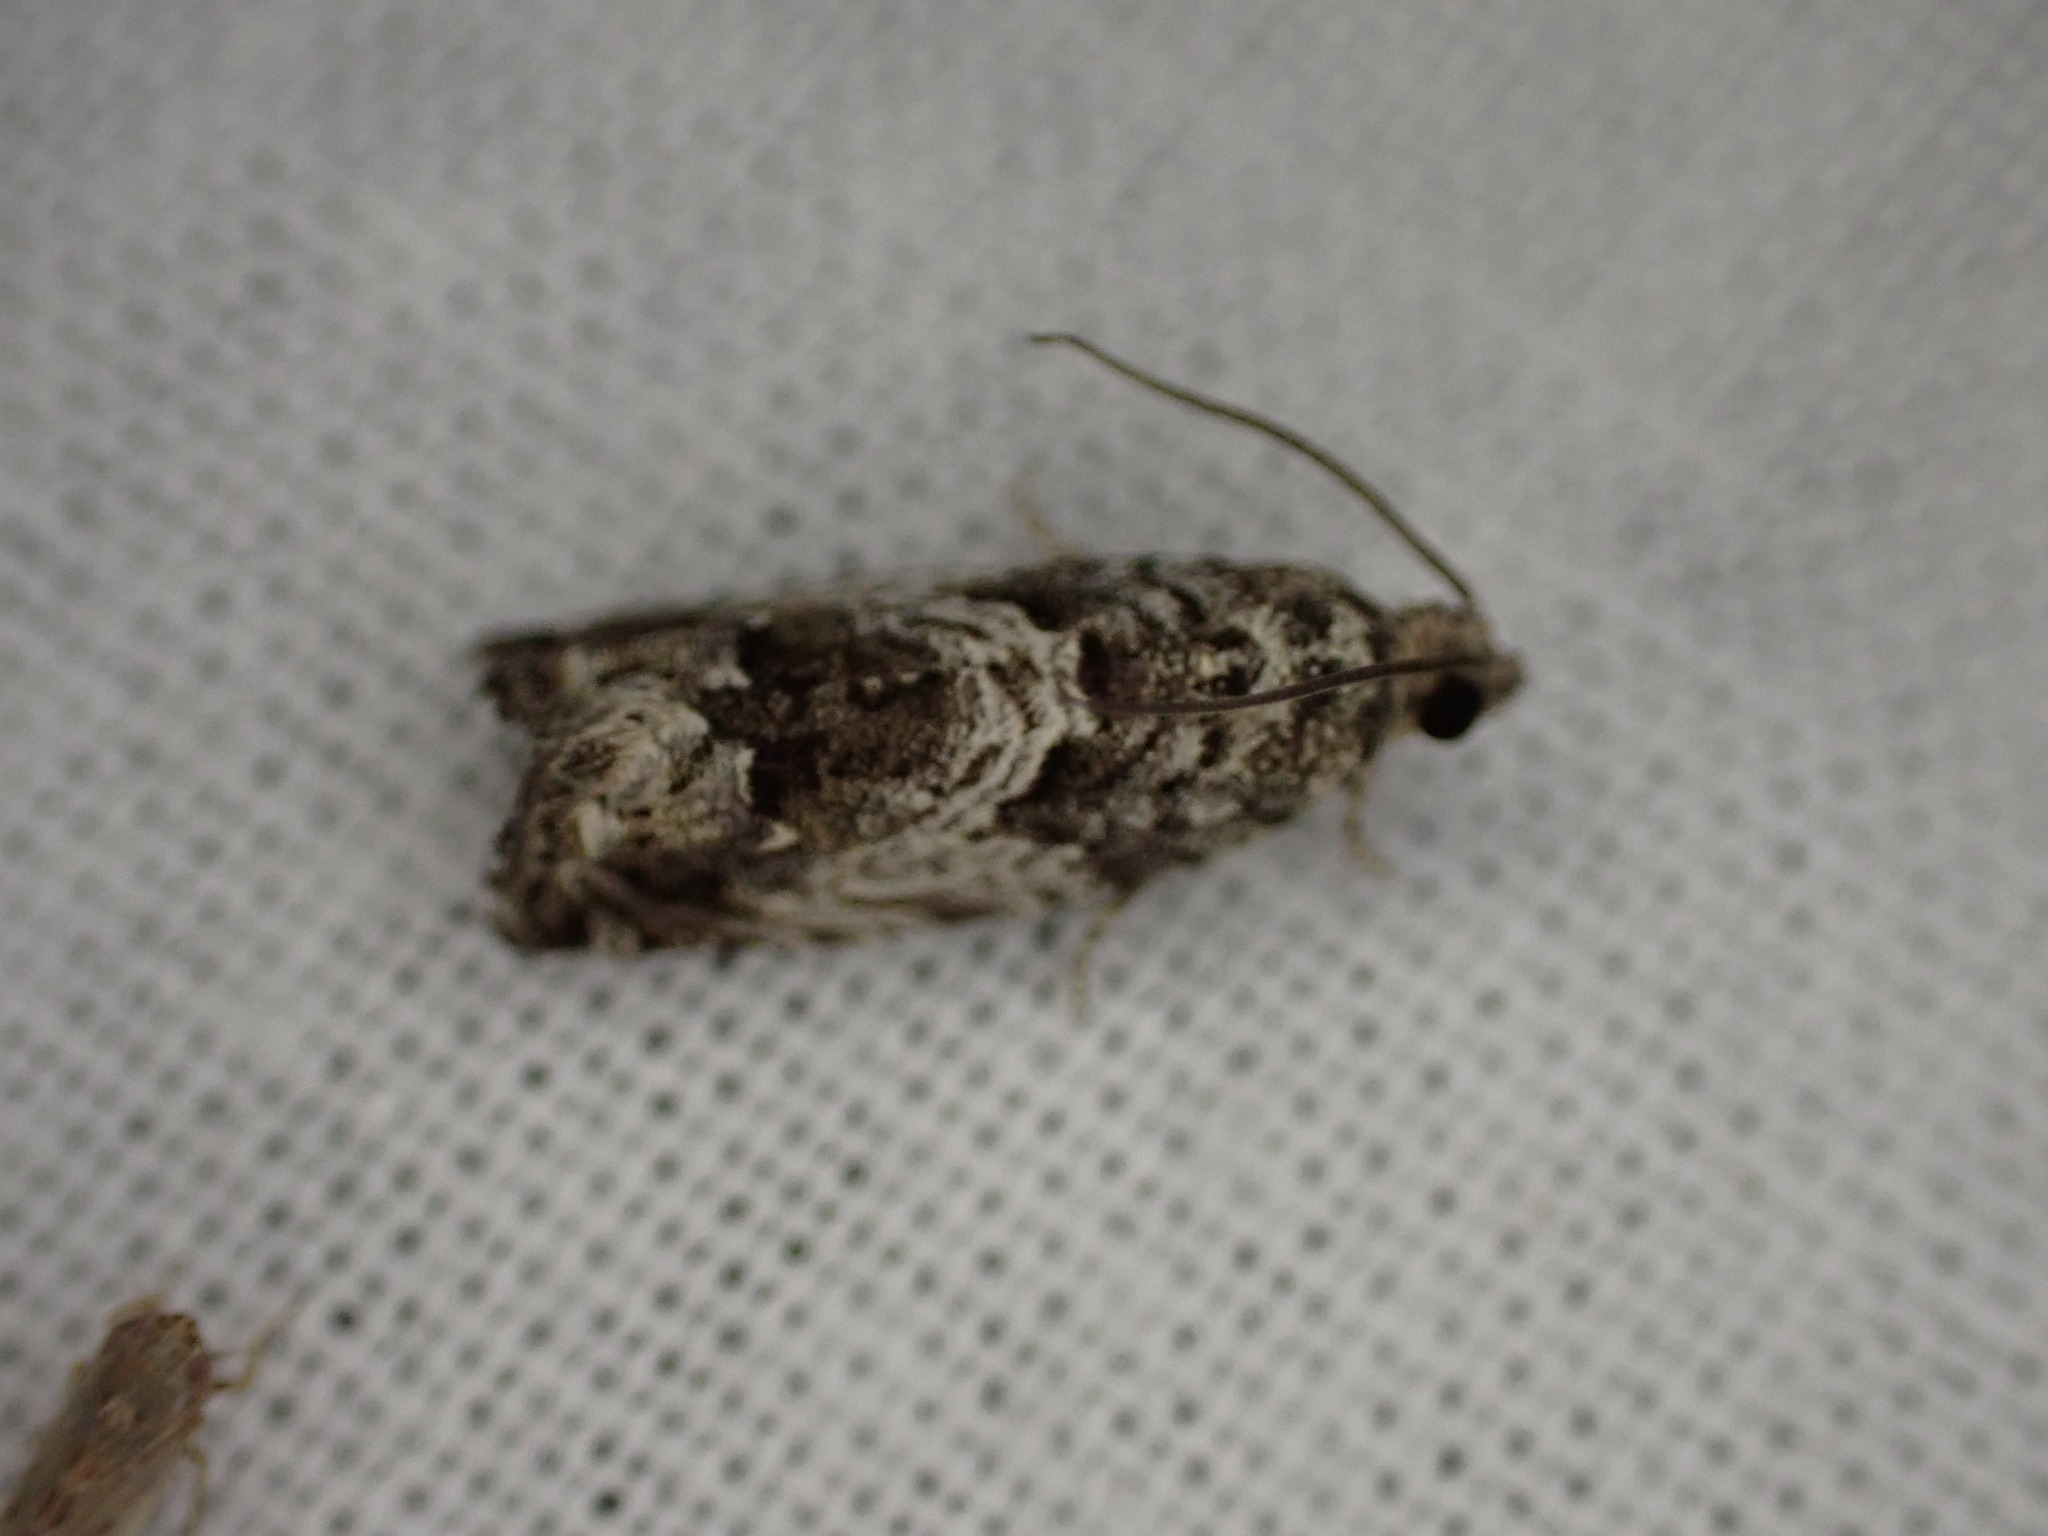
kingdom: Animalia
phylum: Arthropoda
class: Insecta
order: Lepidoptera
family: Tortricidae
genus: Cydia
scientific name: Cydia fagiglandana
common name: Large beech piercer
